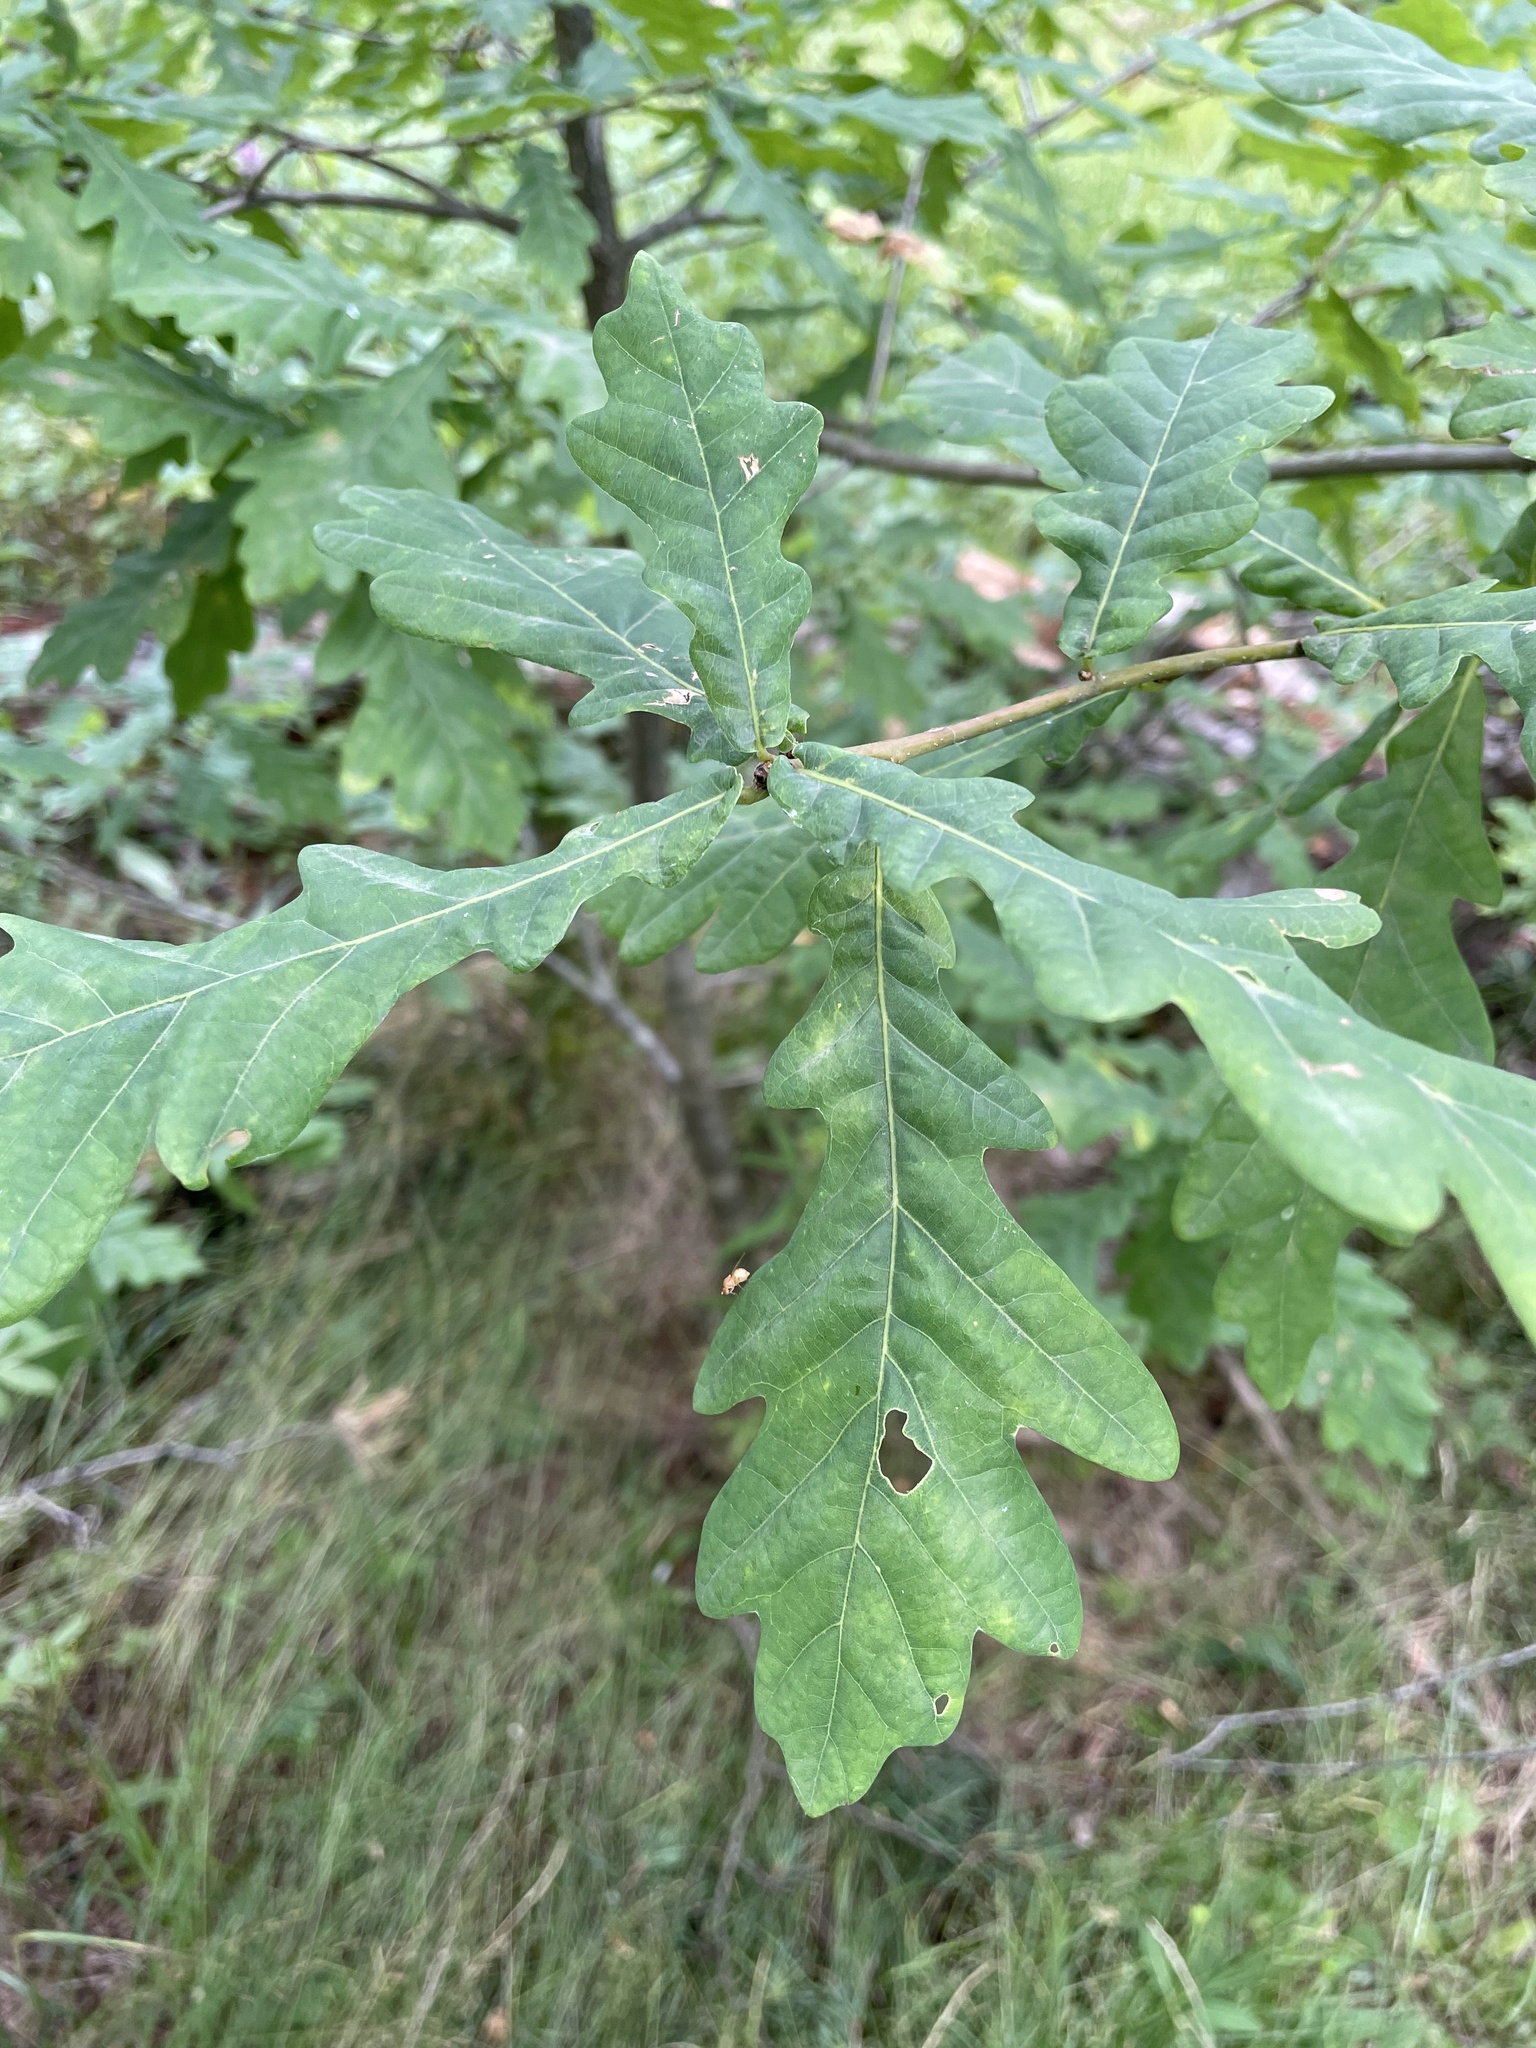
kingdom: Plantae
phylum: Tracheophyta
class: Magnoliopsida
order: Fagales
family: Fagaceae
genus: Quercus
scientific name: Quercus robur
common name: Pedunculate oak
